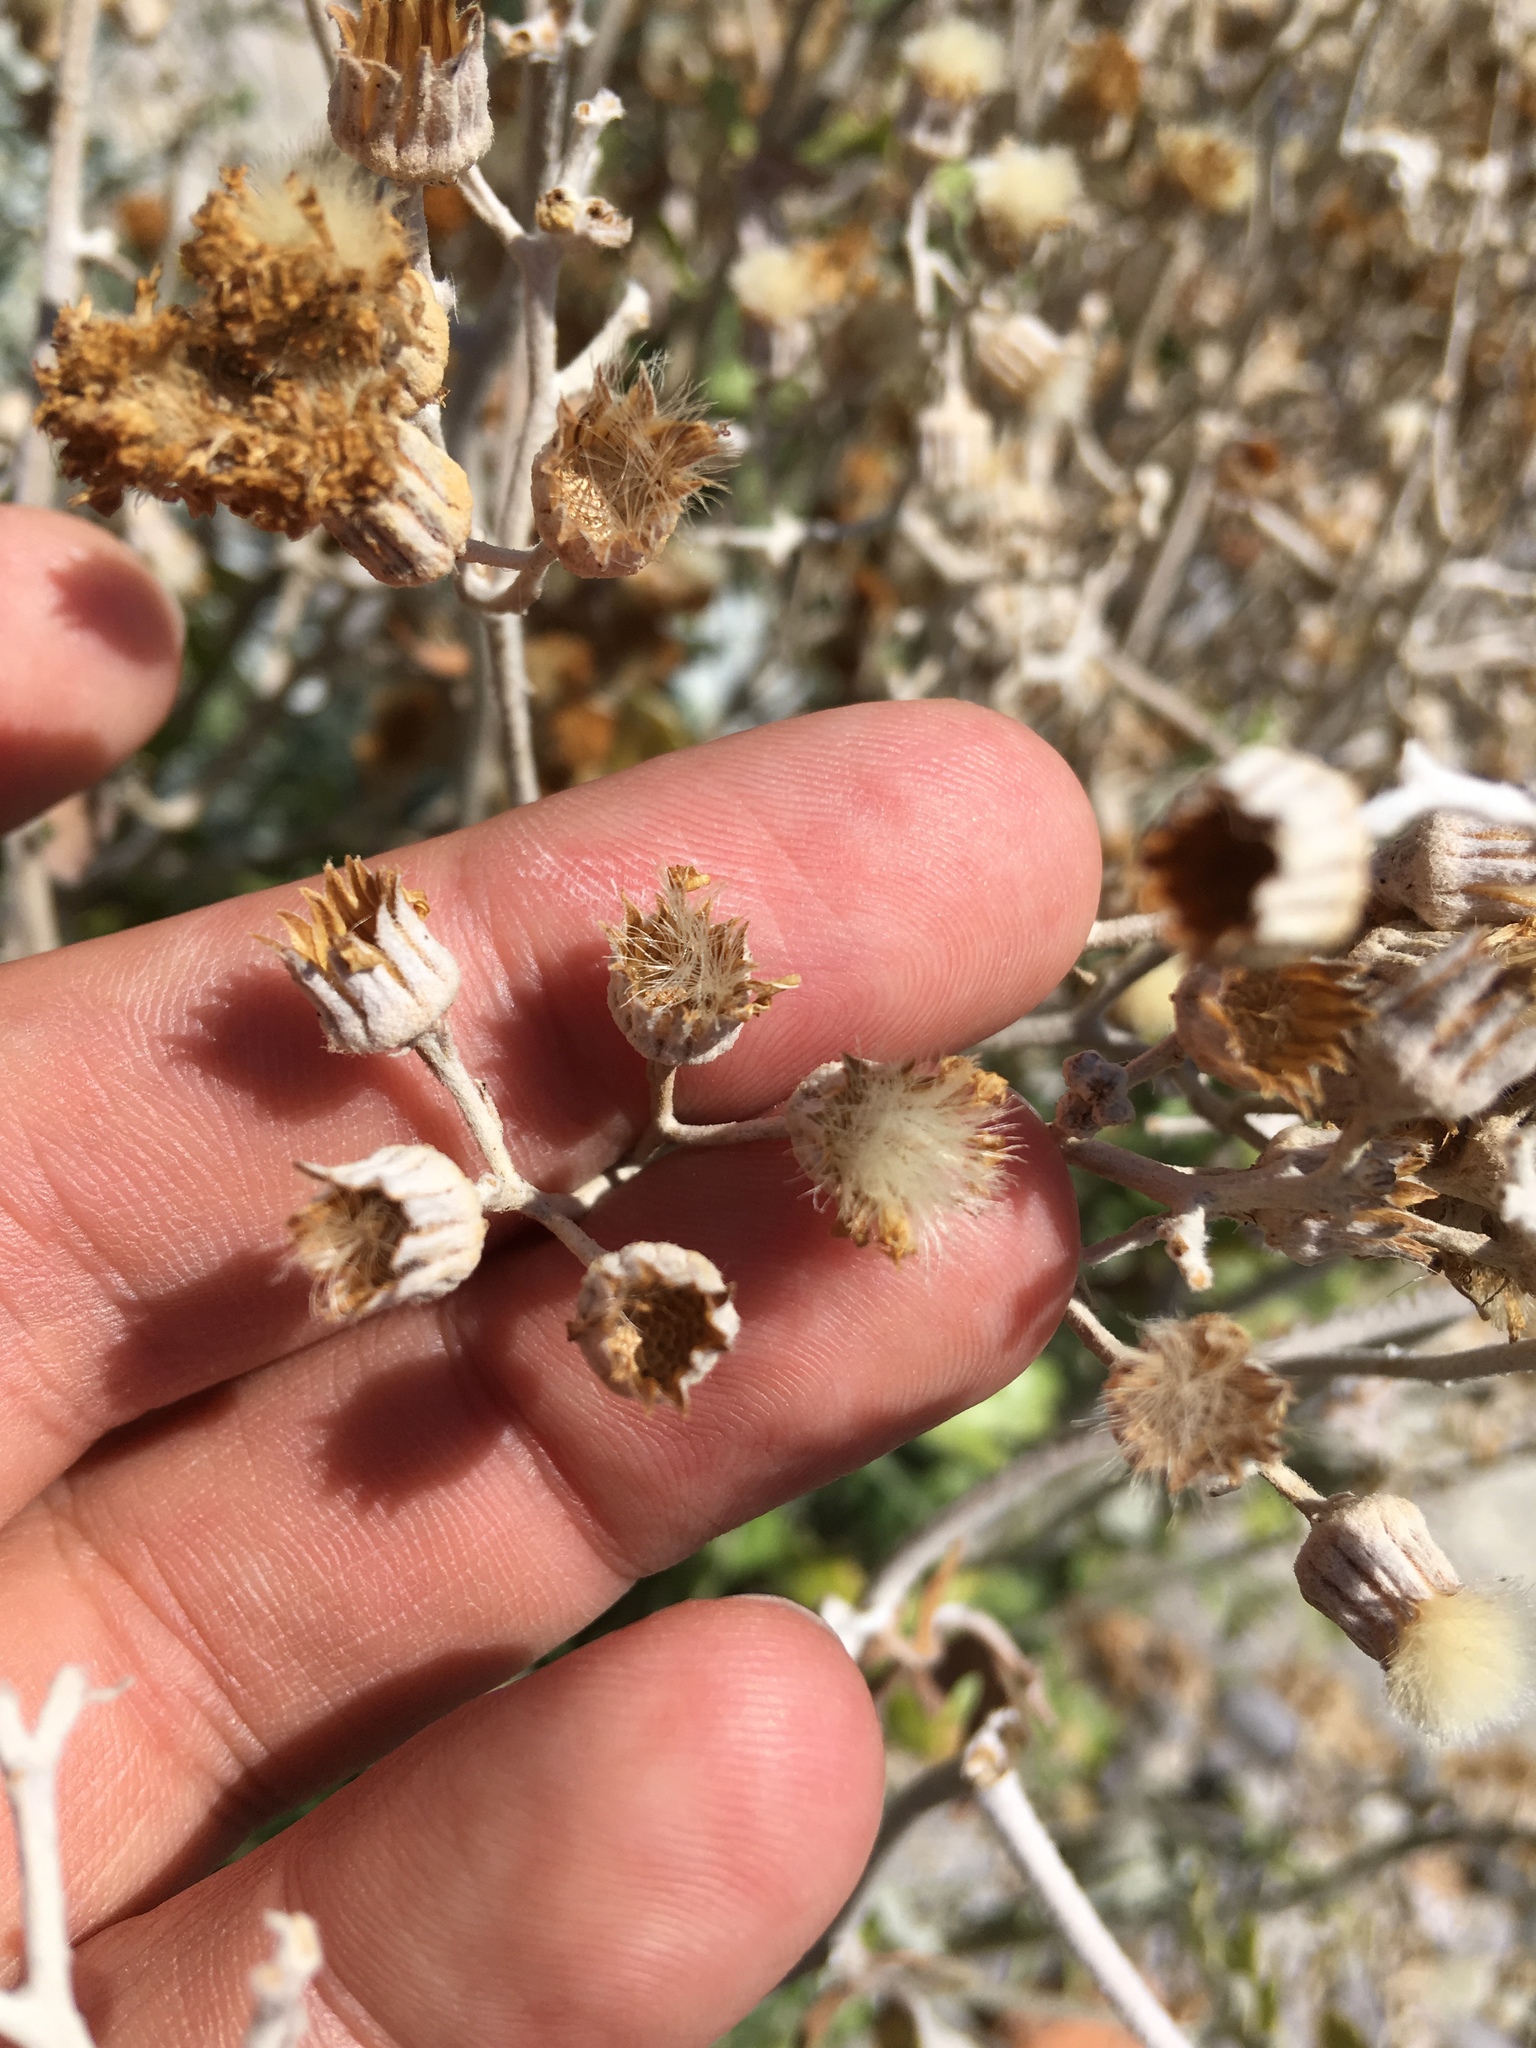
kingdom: Plantae
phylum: Tracheophyta
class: Magnoliopsida
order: Asterales
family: Asteraceae
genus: Jacobaea
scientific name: Jacobaea maritima
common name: Silver ragwort
